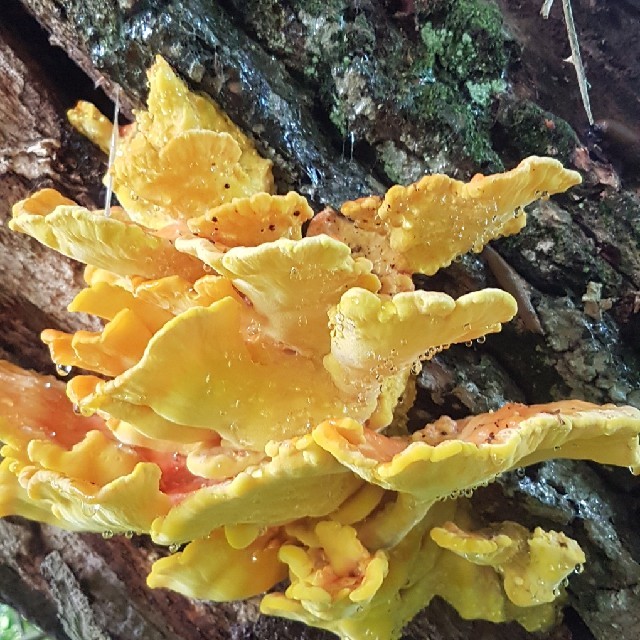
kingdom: Fungi
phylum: Basidiomycota
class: Agaricomycetes
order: Polyporales
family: Laetiporaceae
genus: Laetiporus
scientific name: Laetiporus sulphureus
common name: Chicken of the woods
